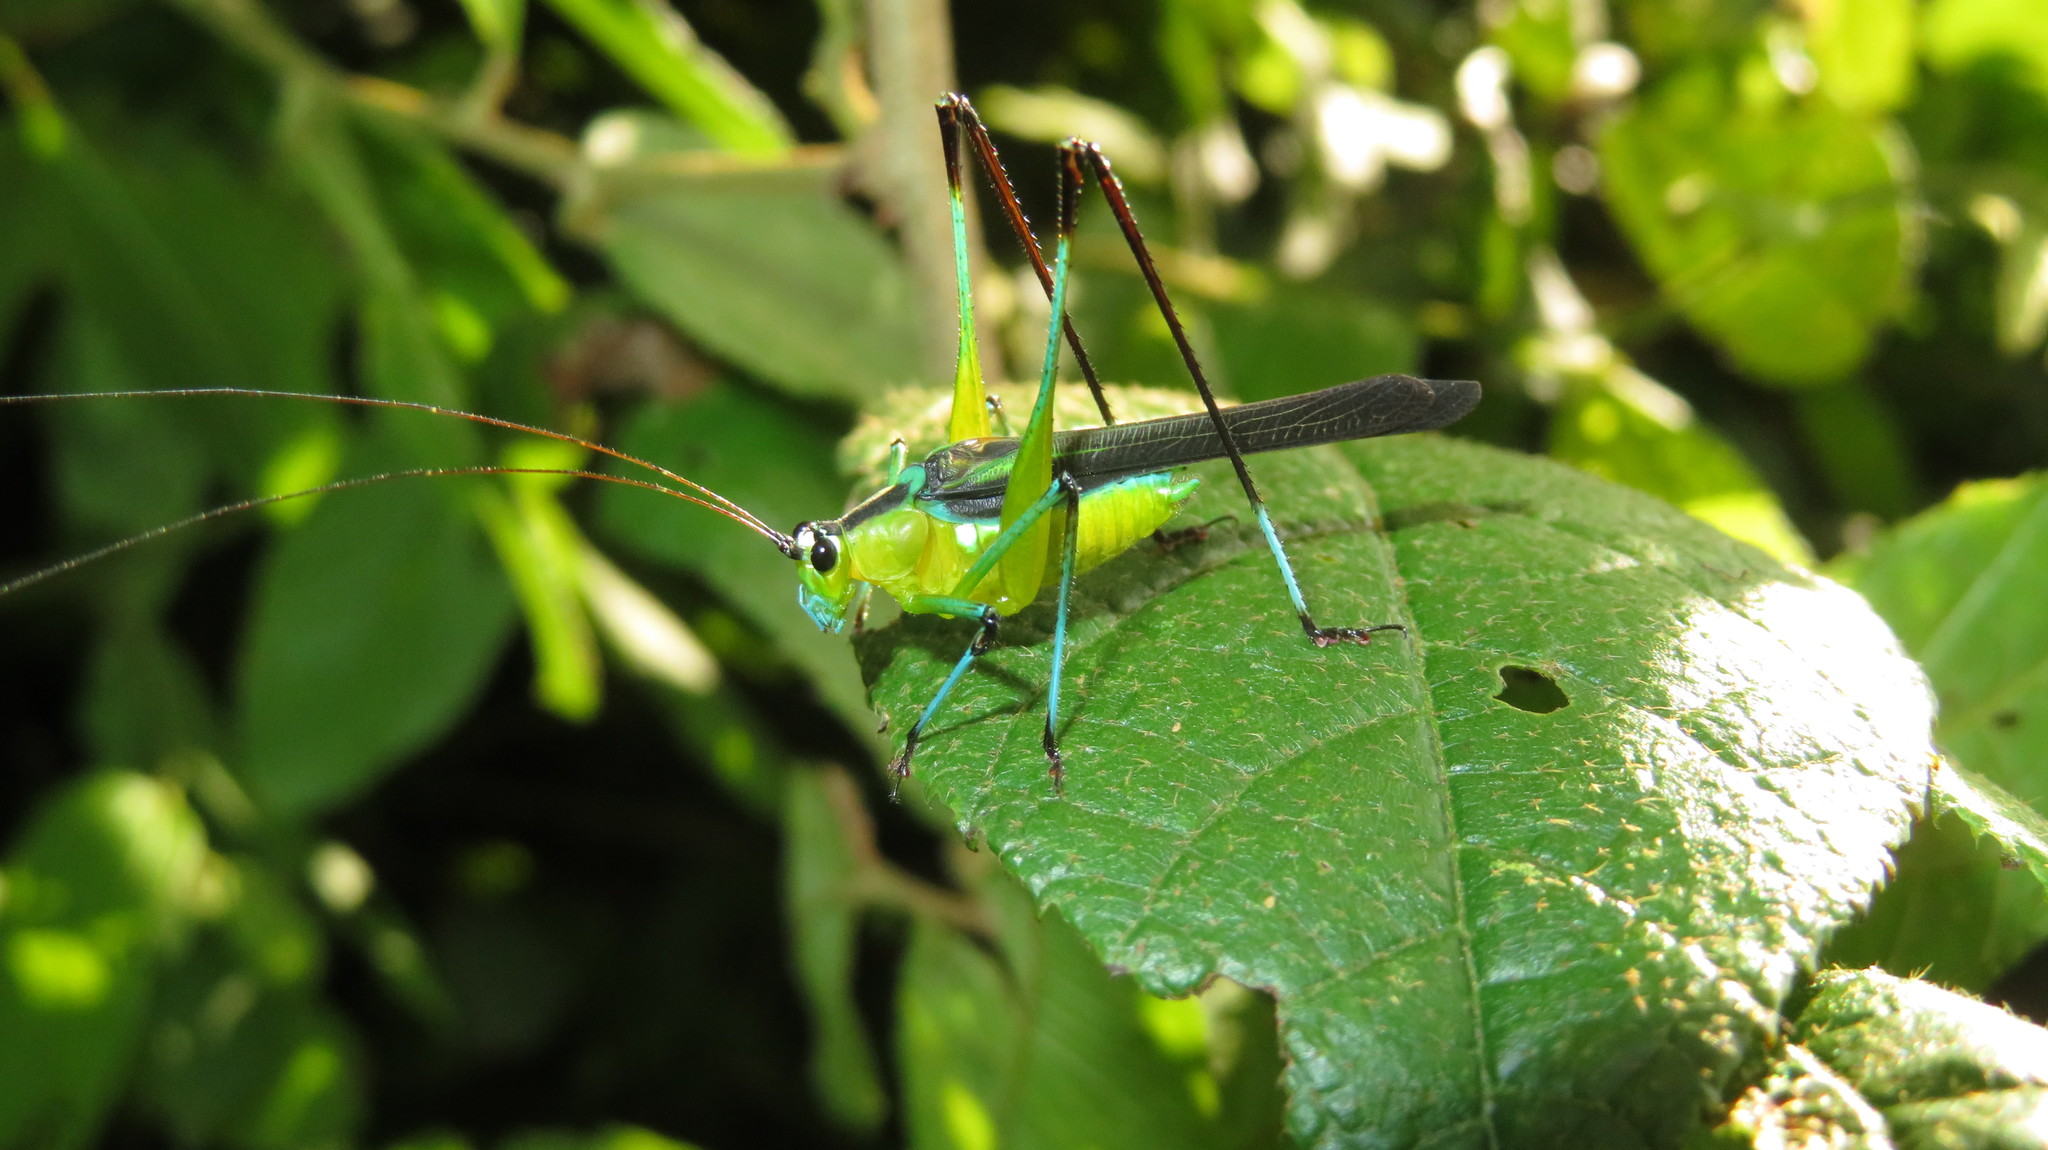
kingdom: Animalia
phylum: Arthropoda
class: Insecta
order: Orthoptera
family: Tettigoniidae
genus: Dioncomena
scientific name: Dioncomena ornata
